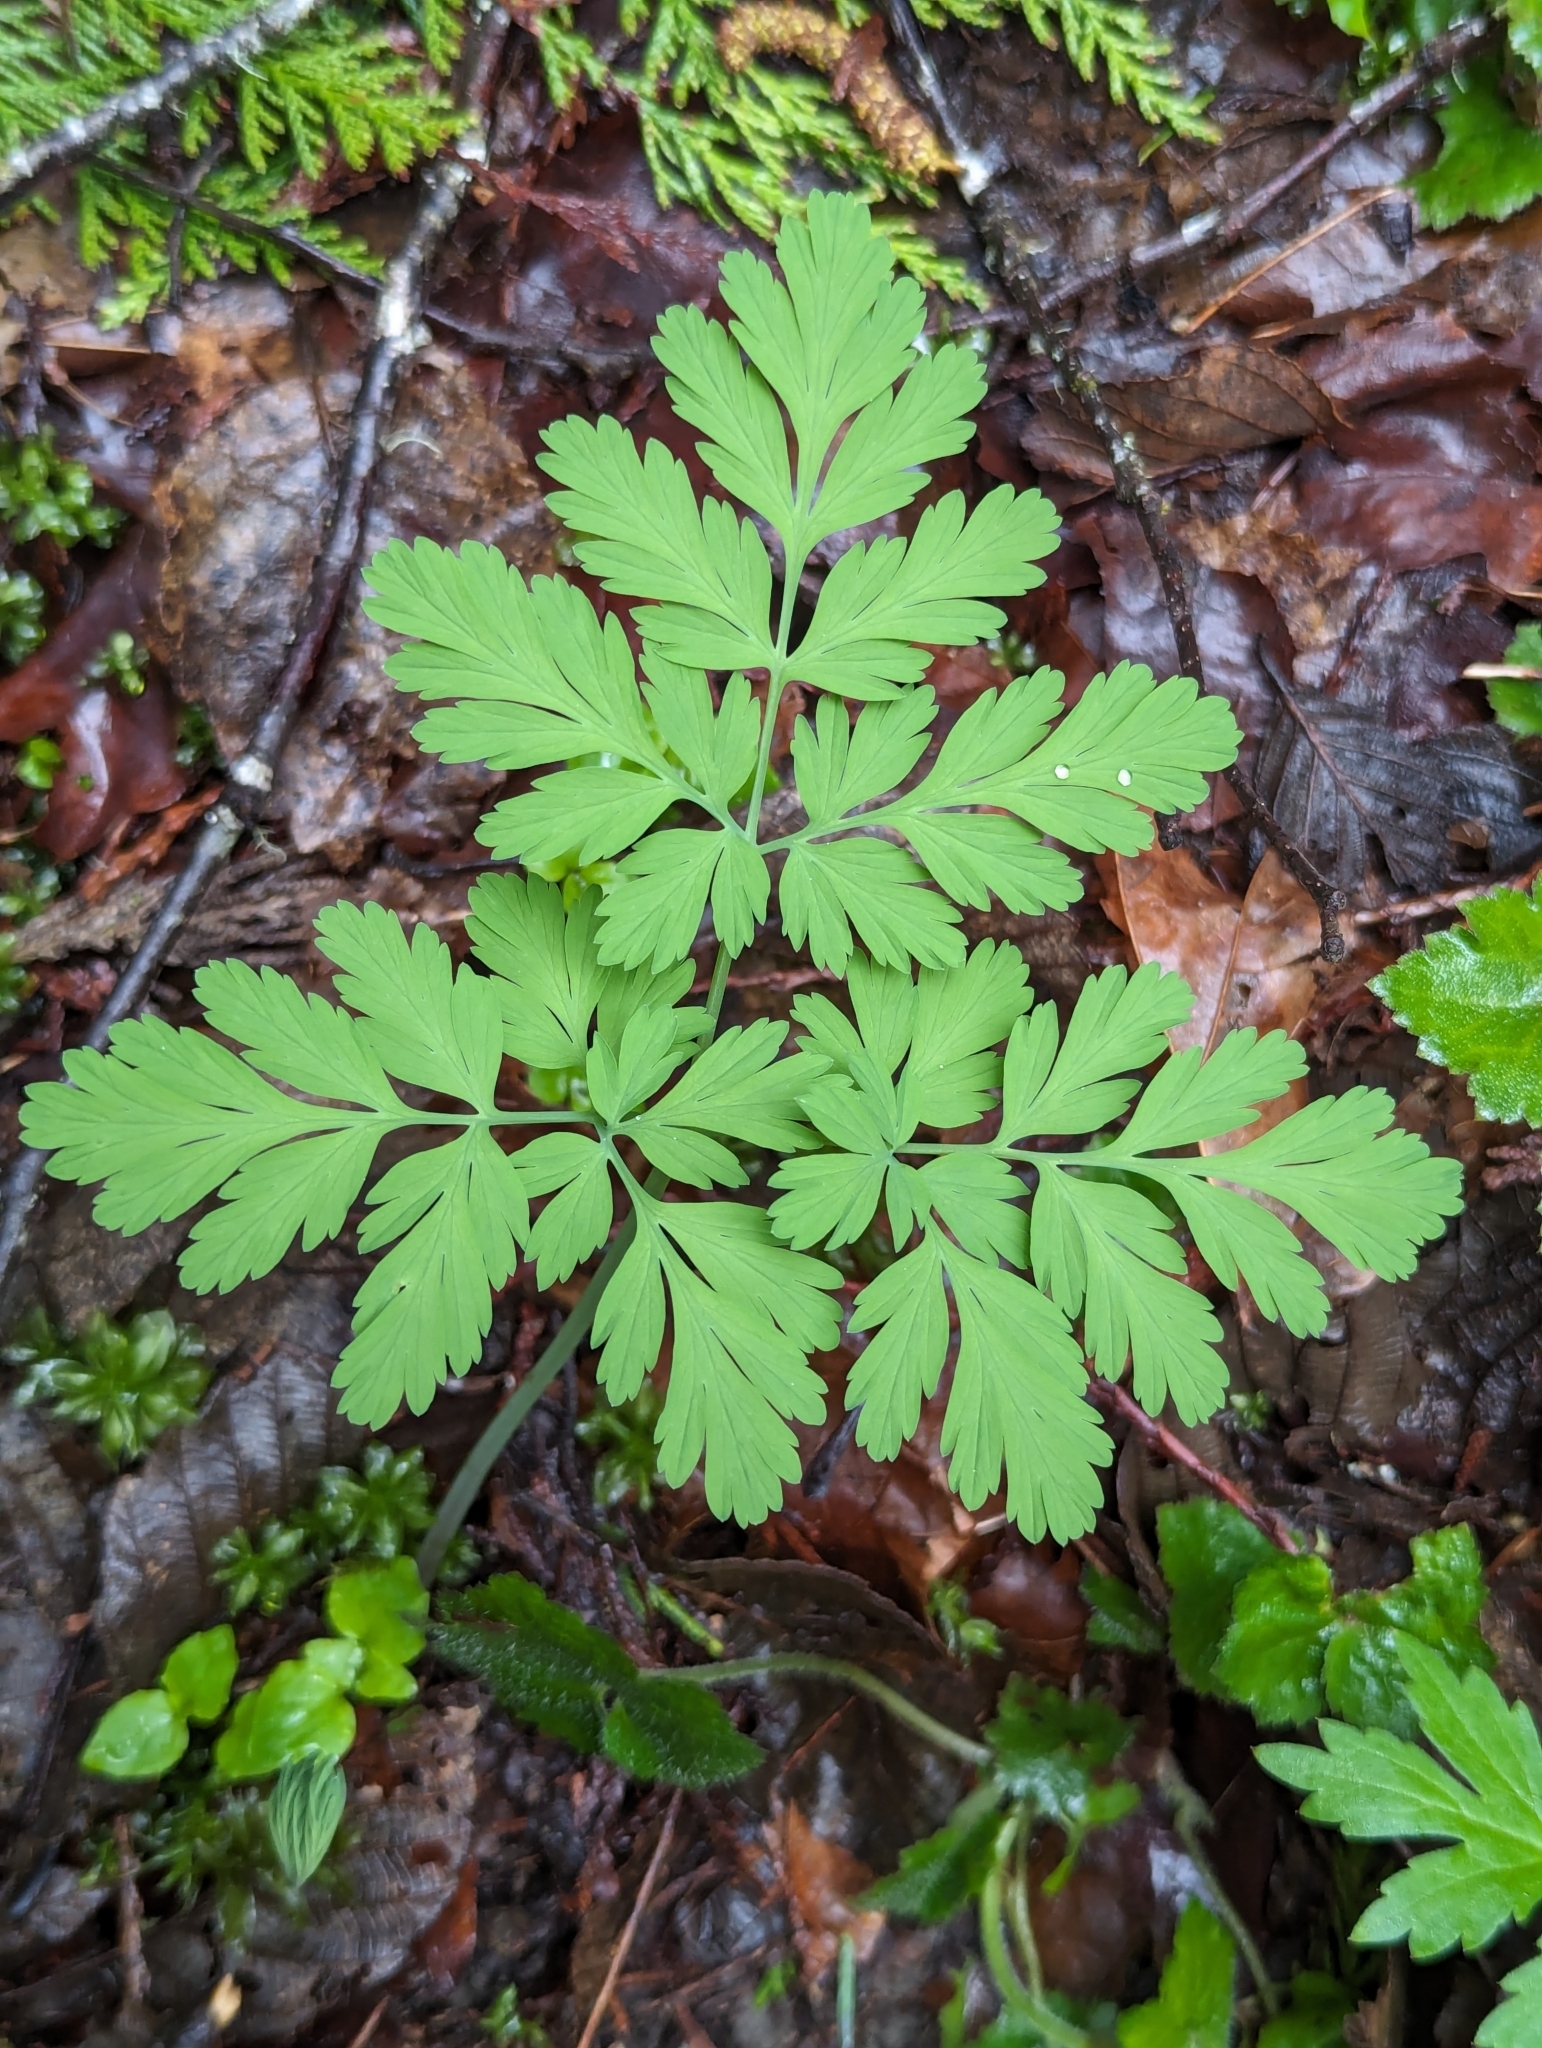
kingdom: Plantae
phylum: Tracheophyta
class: Magnoliopsida
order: Ranunculales
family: Papaveraceae
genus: Dicentra
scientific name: Dicentra formosa
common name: Bleeding-heart
